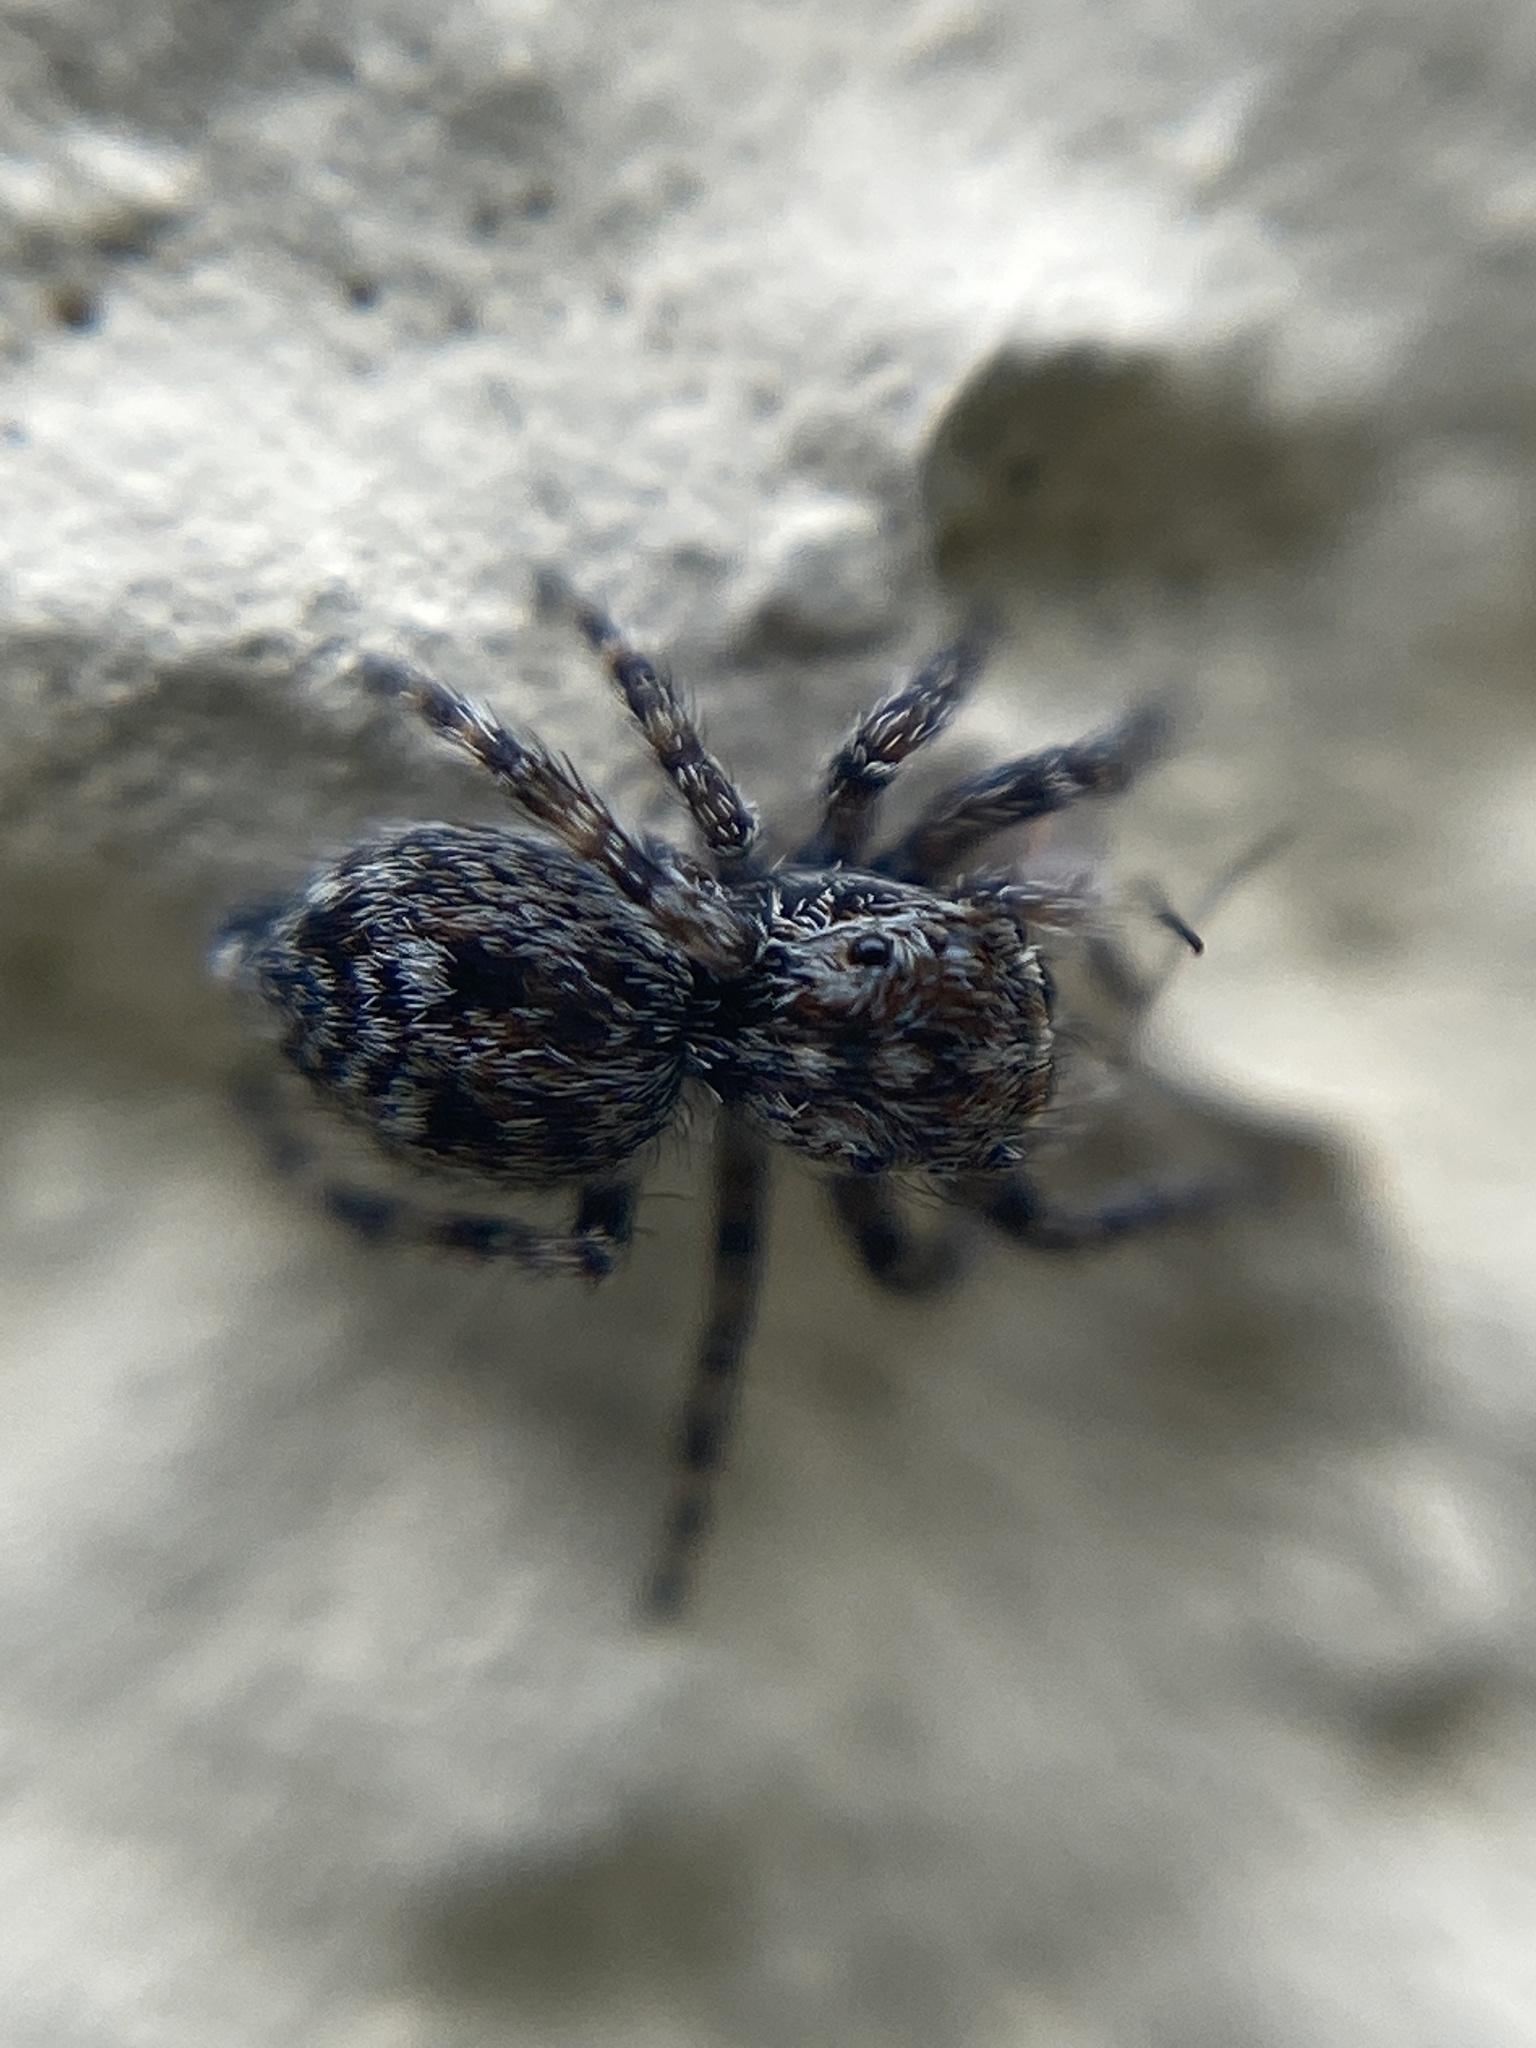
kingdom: Animalia
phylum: Arthropoda
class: Arachnida
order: Araneae
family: Salticidae
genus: Attulus
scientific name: Attulus pubescens
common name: Jumping spider
